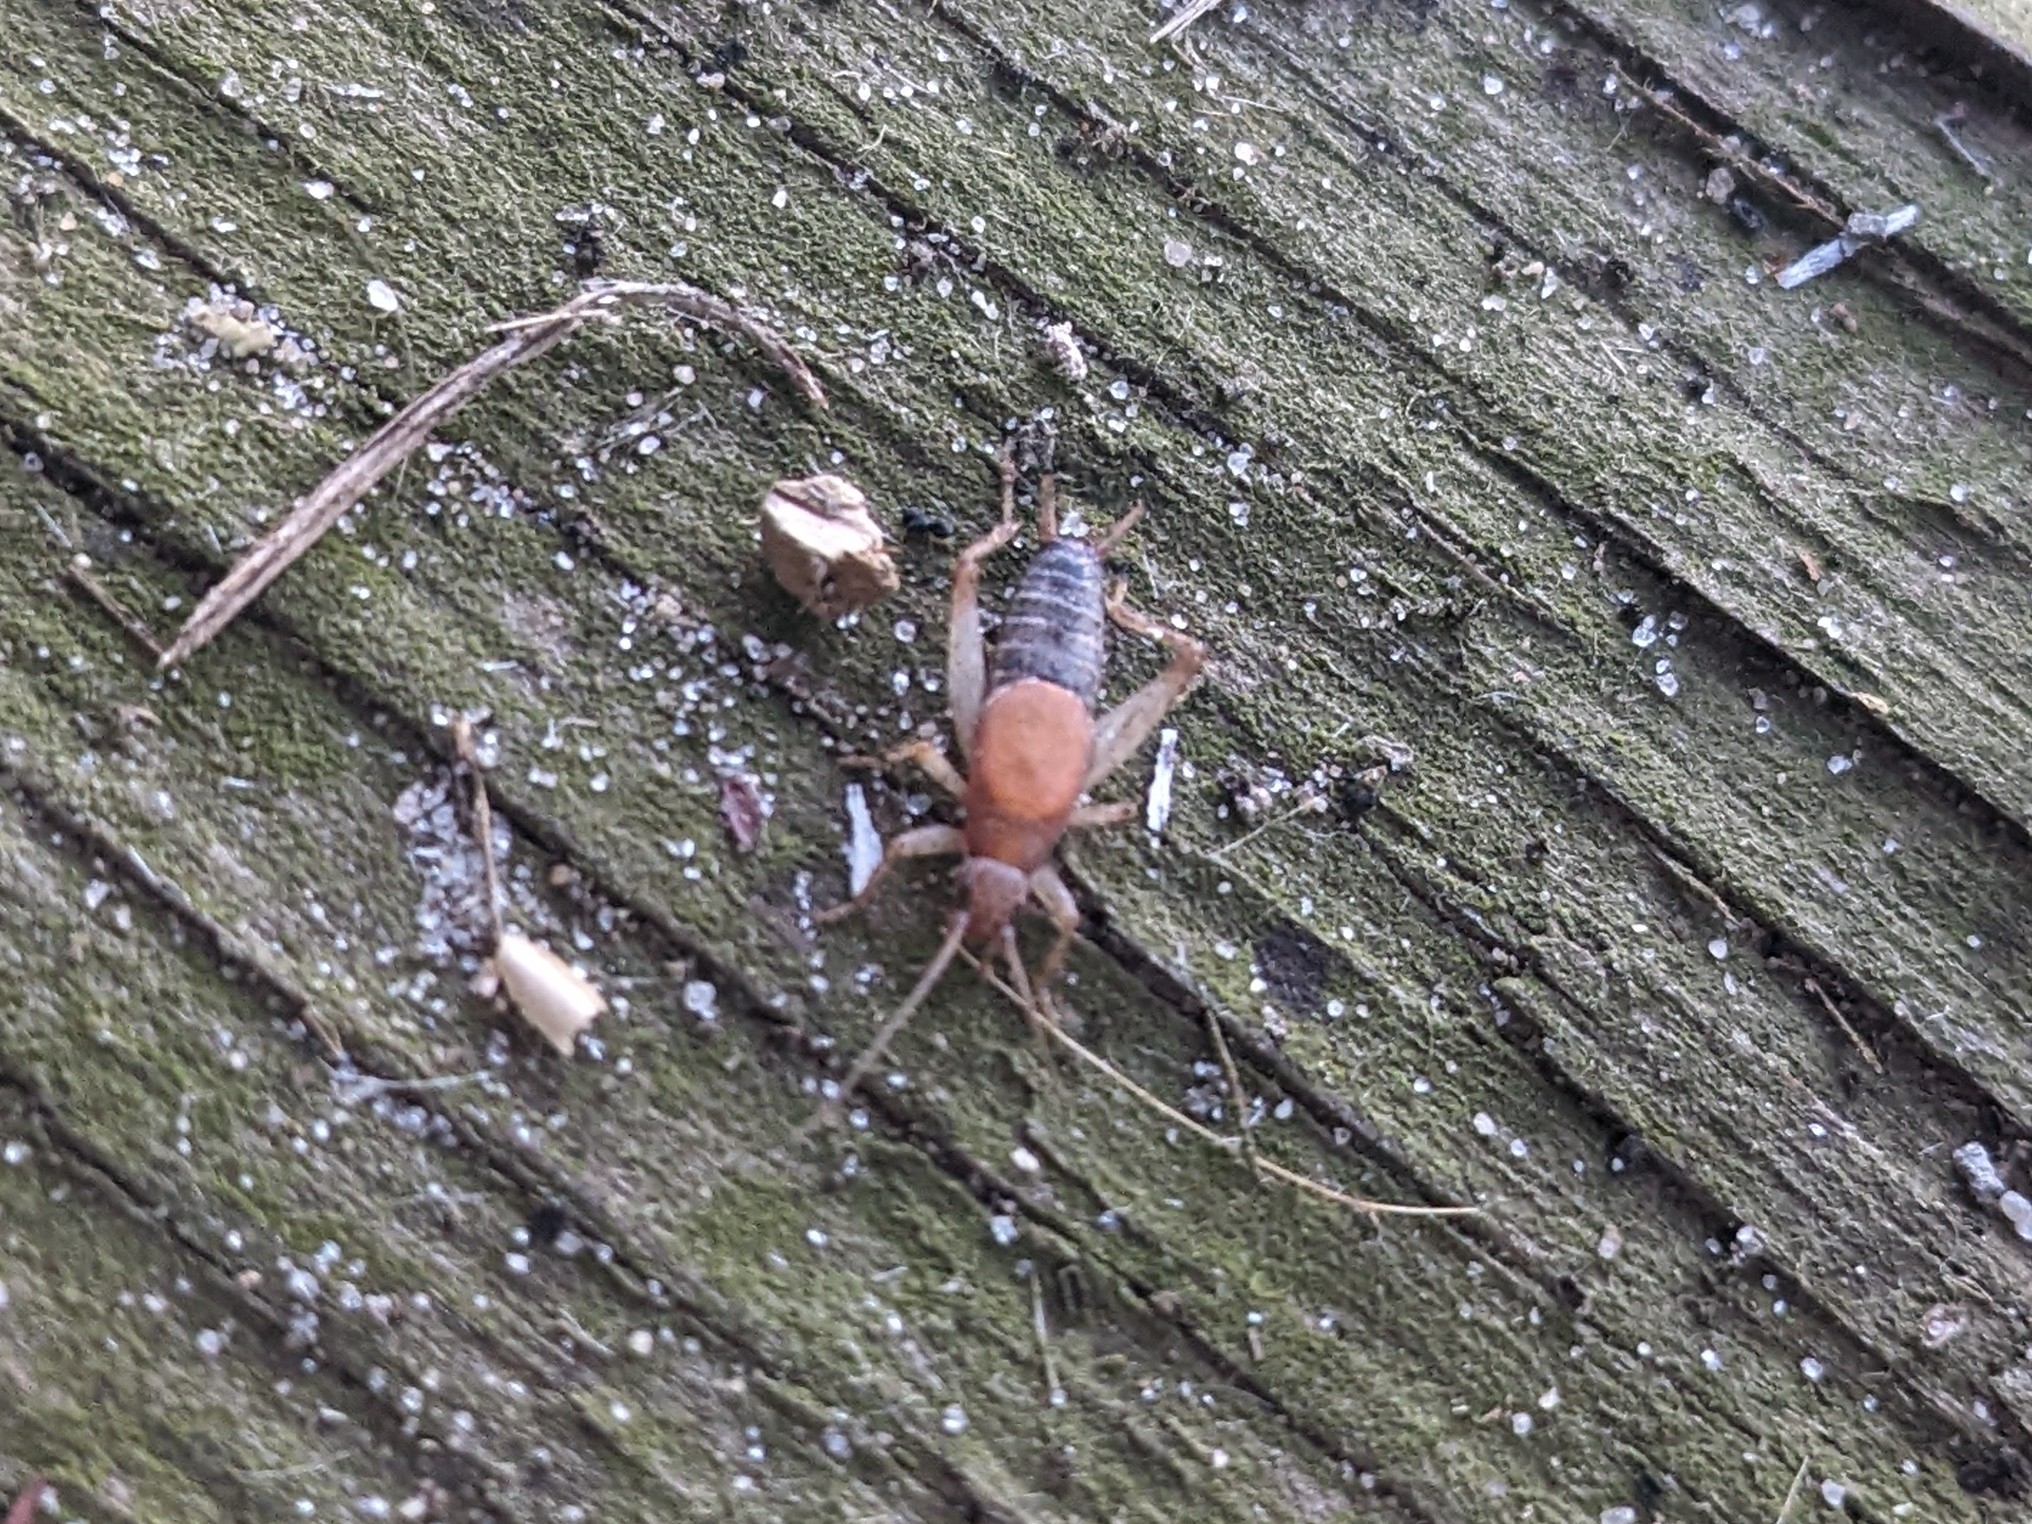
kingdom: Animalia
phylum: Arthropoda
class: Insecta
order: Orthoptera
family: Mogoplistidae
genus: Cycloptilum
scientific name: Cycloptilum trigonipalpum
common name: Forest scaly cricket
